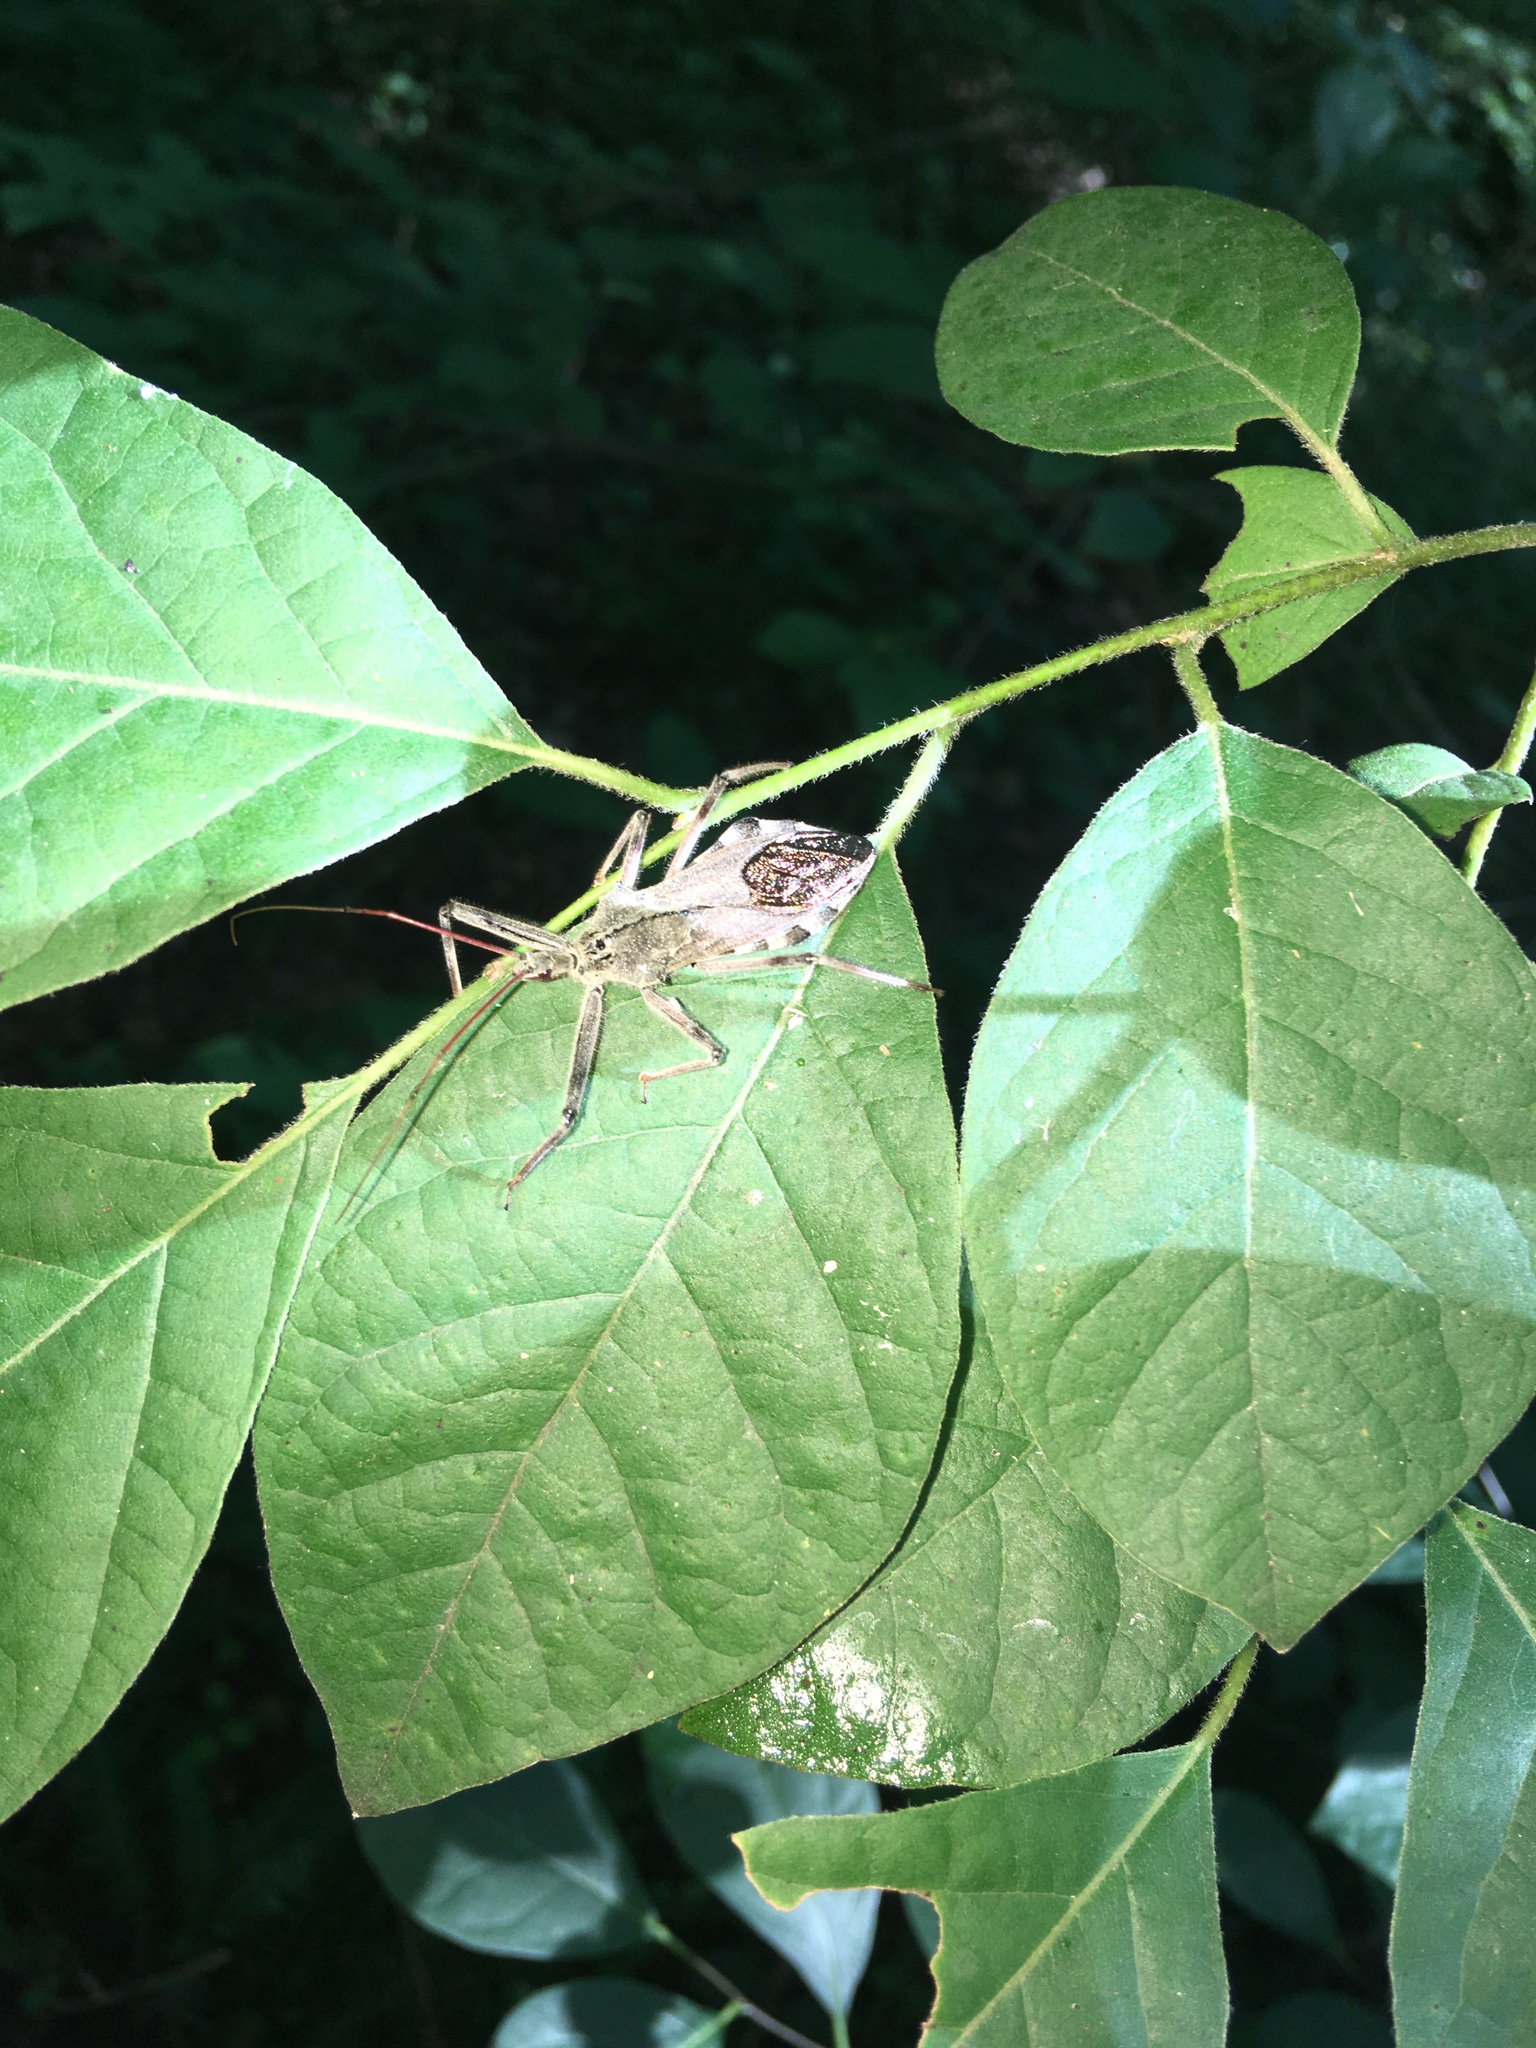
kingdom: Animalia
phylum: Arthropoda
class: Insecta
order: Hemiptera
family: Reduviidae
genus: Arilus
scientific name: Arilus cristatus
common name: North american wheel bug
